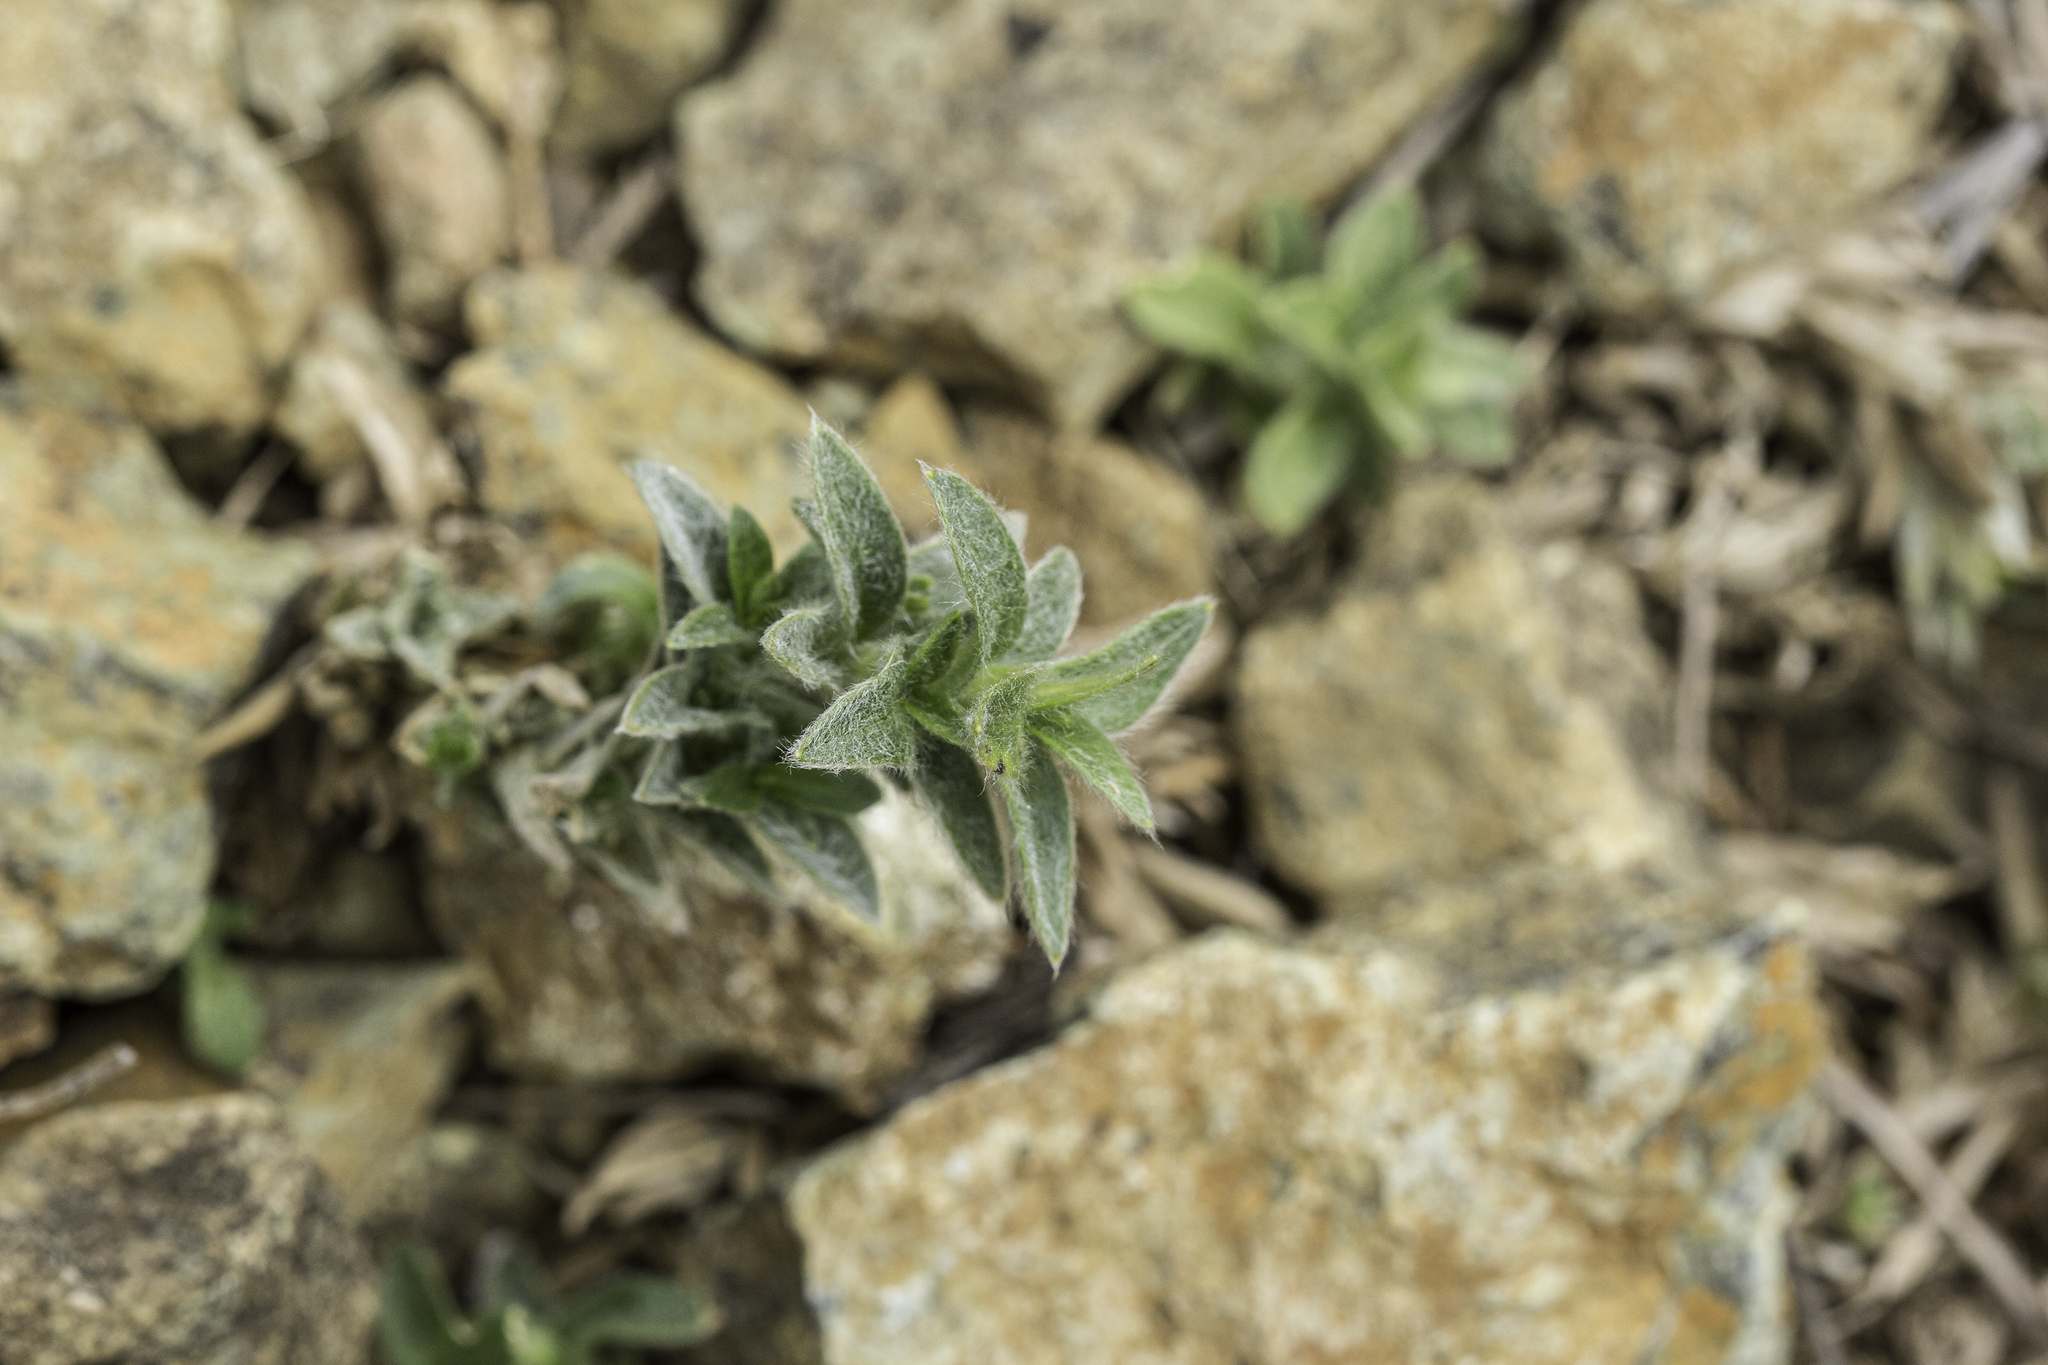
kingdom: Plantae
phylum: Tracheophyta
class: Magnoliopsida
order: Caryophyllales
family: Caryophyllaceae
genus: Cerastium
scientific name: Cerastium velutinum
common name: Barren chickweed
